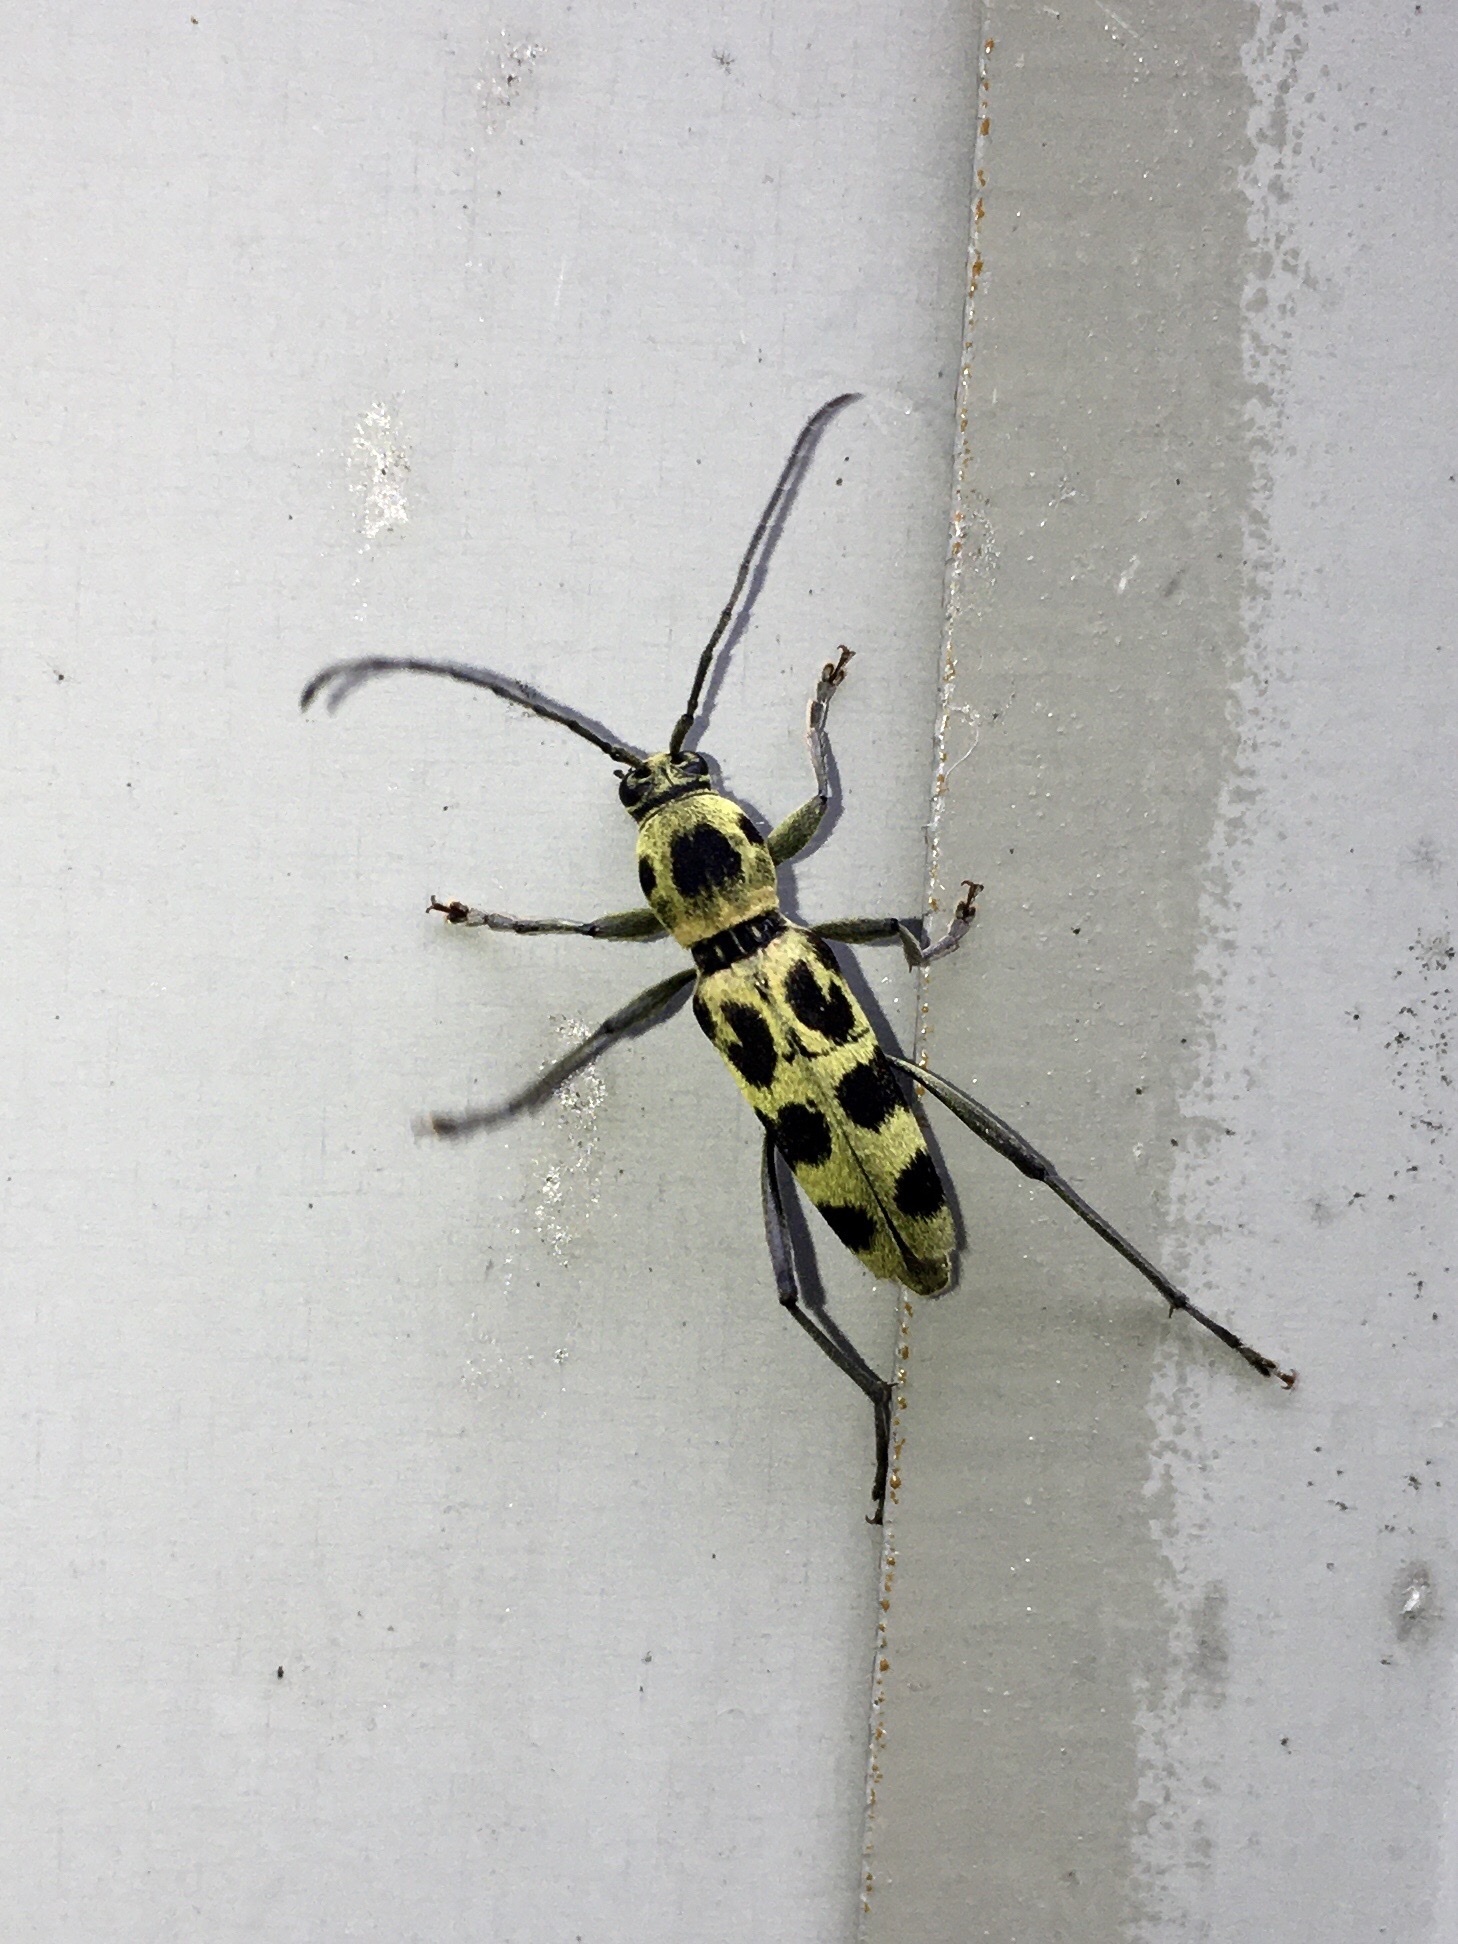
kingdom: Animalia
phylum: Arthropoda
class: Insecta
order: Coleoptera
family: Cerambycidae
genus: Chlorophorus
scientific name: Chlorophorus herbstii
